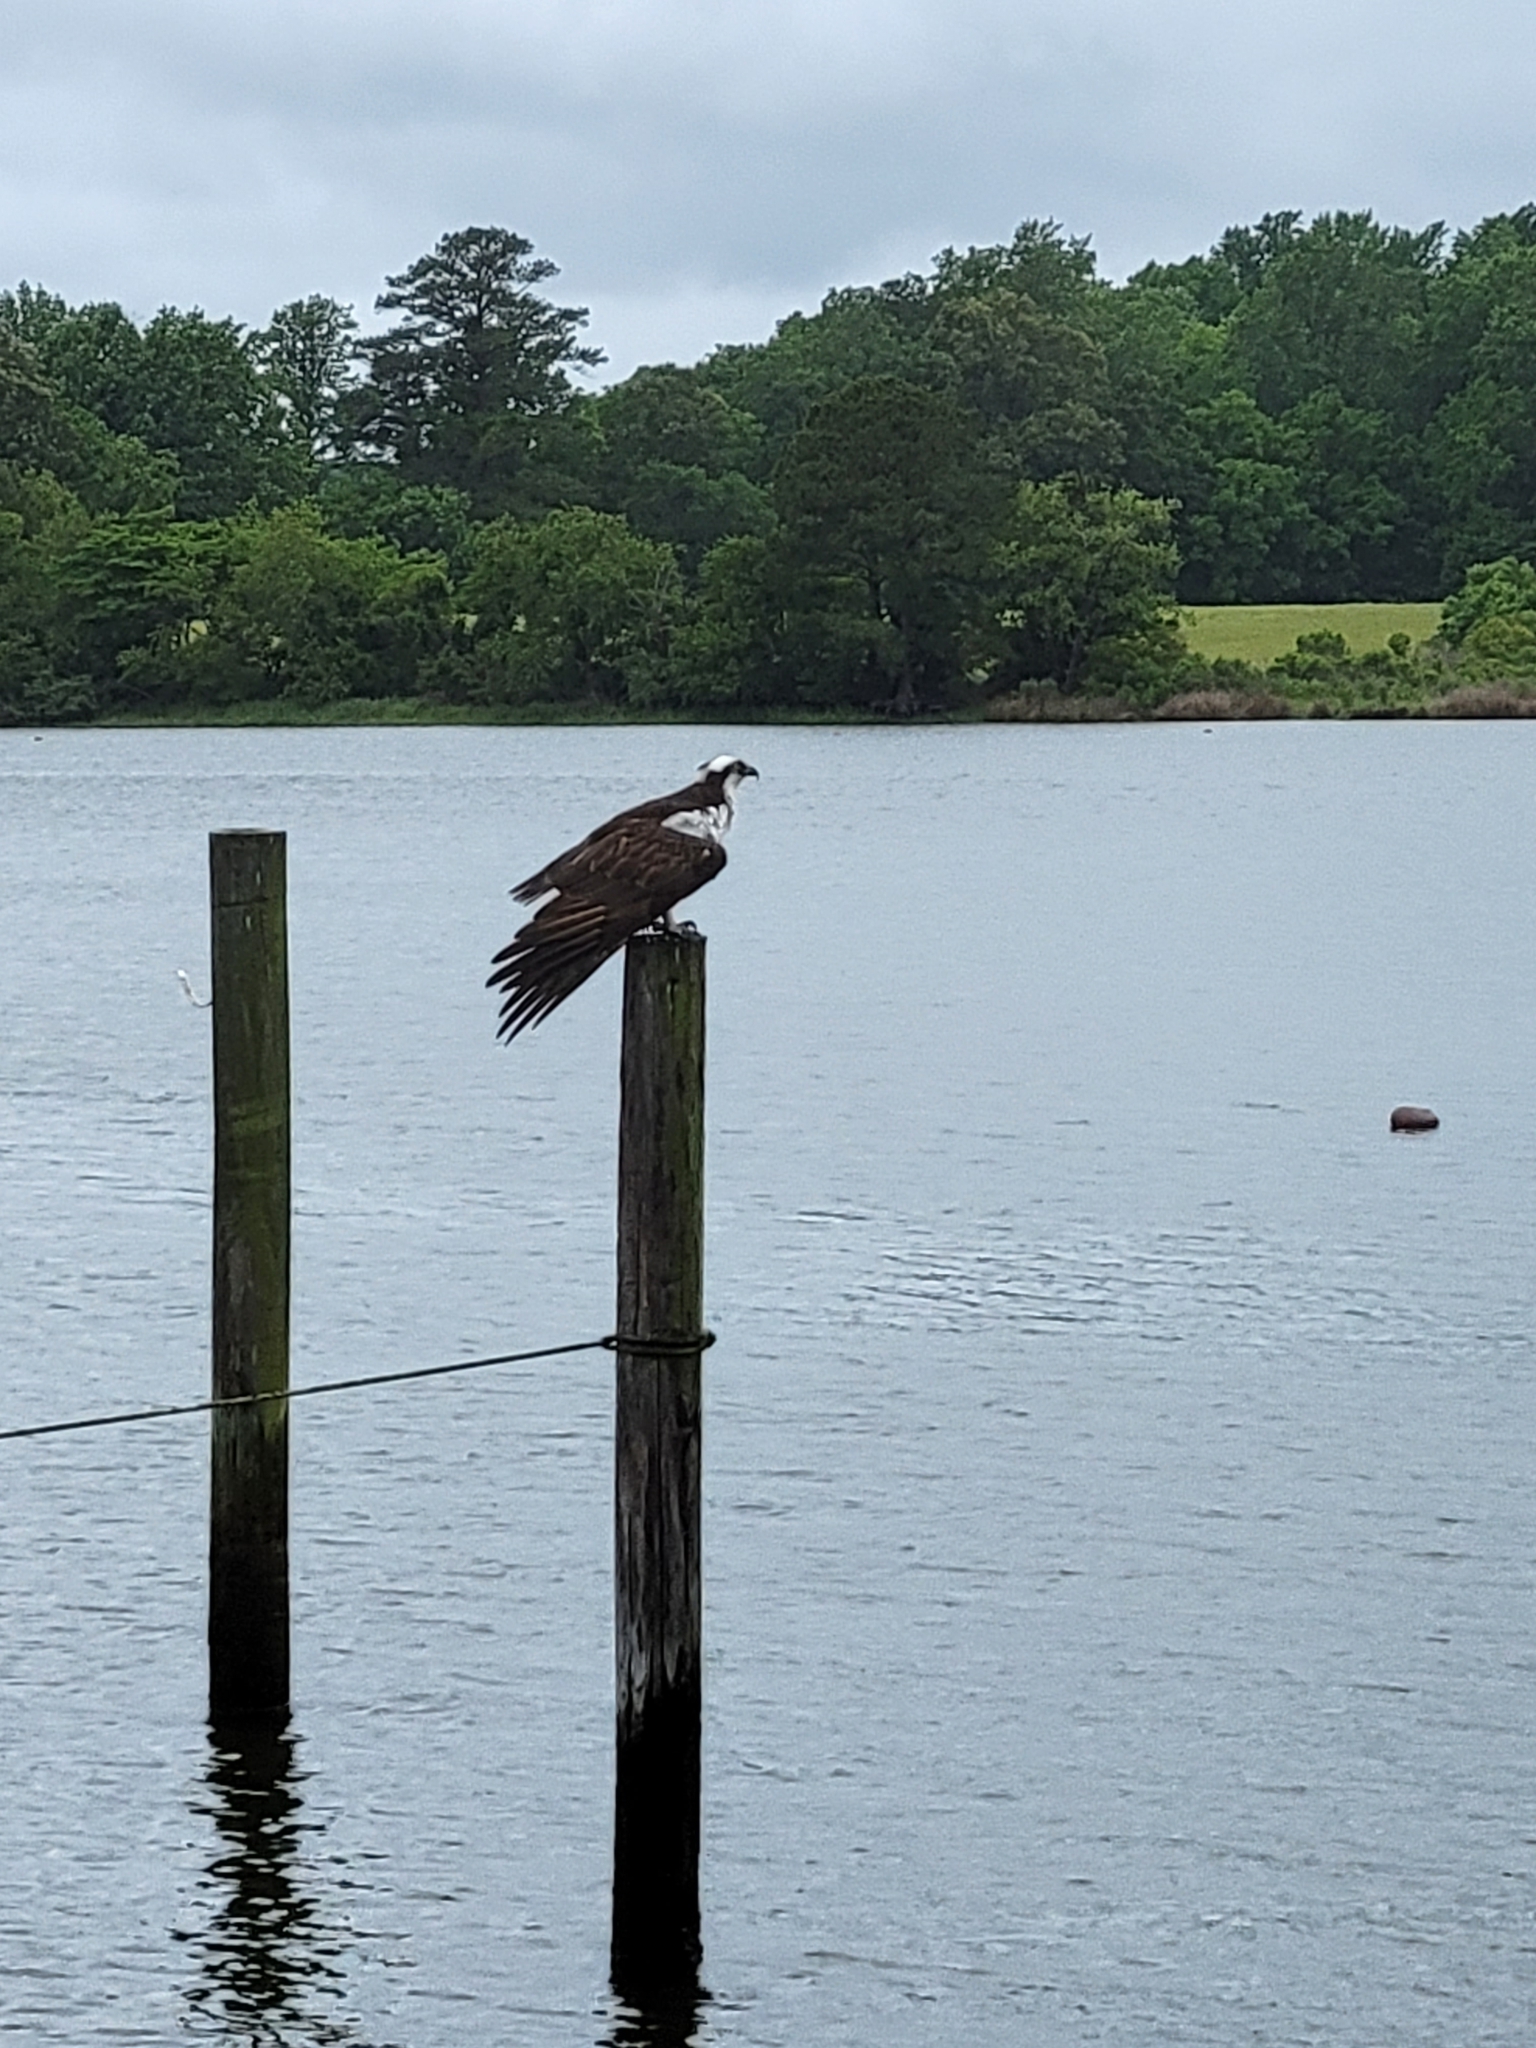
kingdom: Animalia
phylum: Chordata
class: Aves
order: Accipitriformes
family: Pandionidae
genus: Pandion
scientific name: Pandion haliaetus
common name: Osprey
